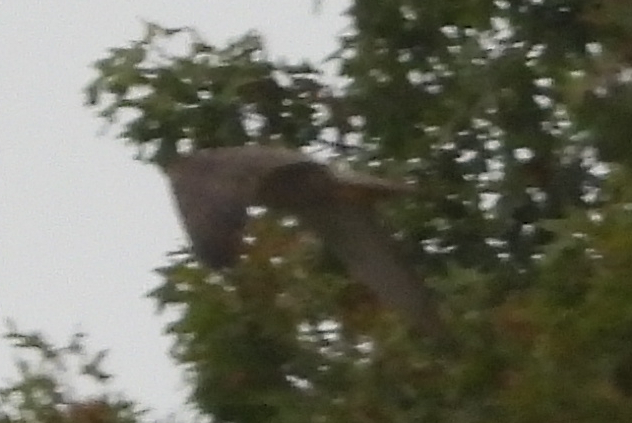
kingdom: Animalia
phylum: Chordata
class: Aves
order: Falconiformes
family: Falconidae
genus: Falco
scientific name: Falco peregrinus
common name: Peregrine falcon
